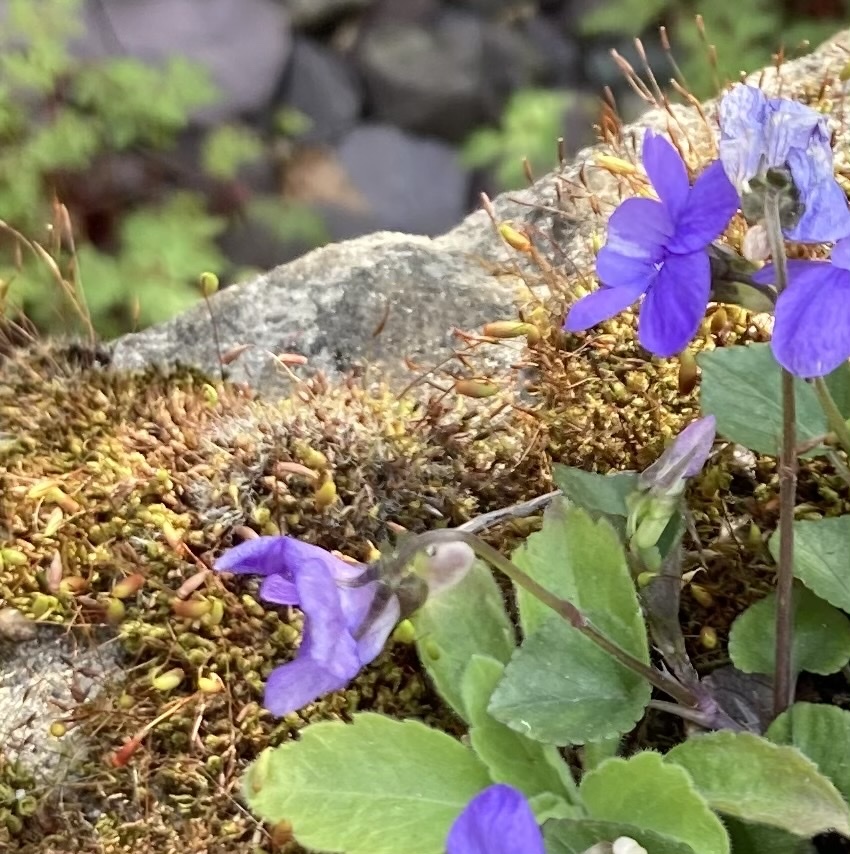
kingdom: Plantae
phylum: Tracheophyta
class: Magnoliopsida
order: Malpighiales
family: Violaceae
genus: Viola
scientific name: Viola riviniana
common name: Common dog-violet
